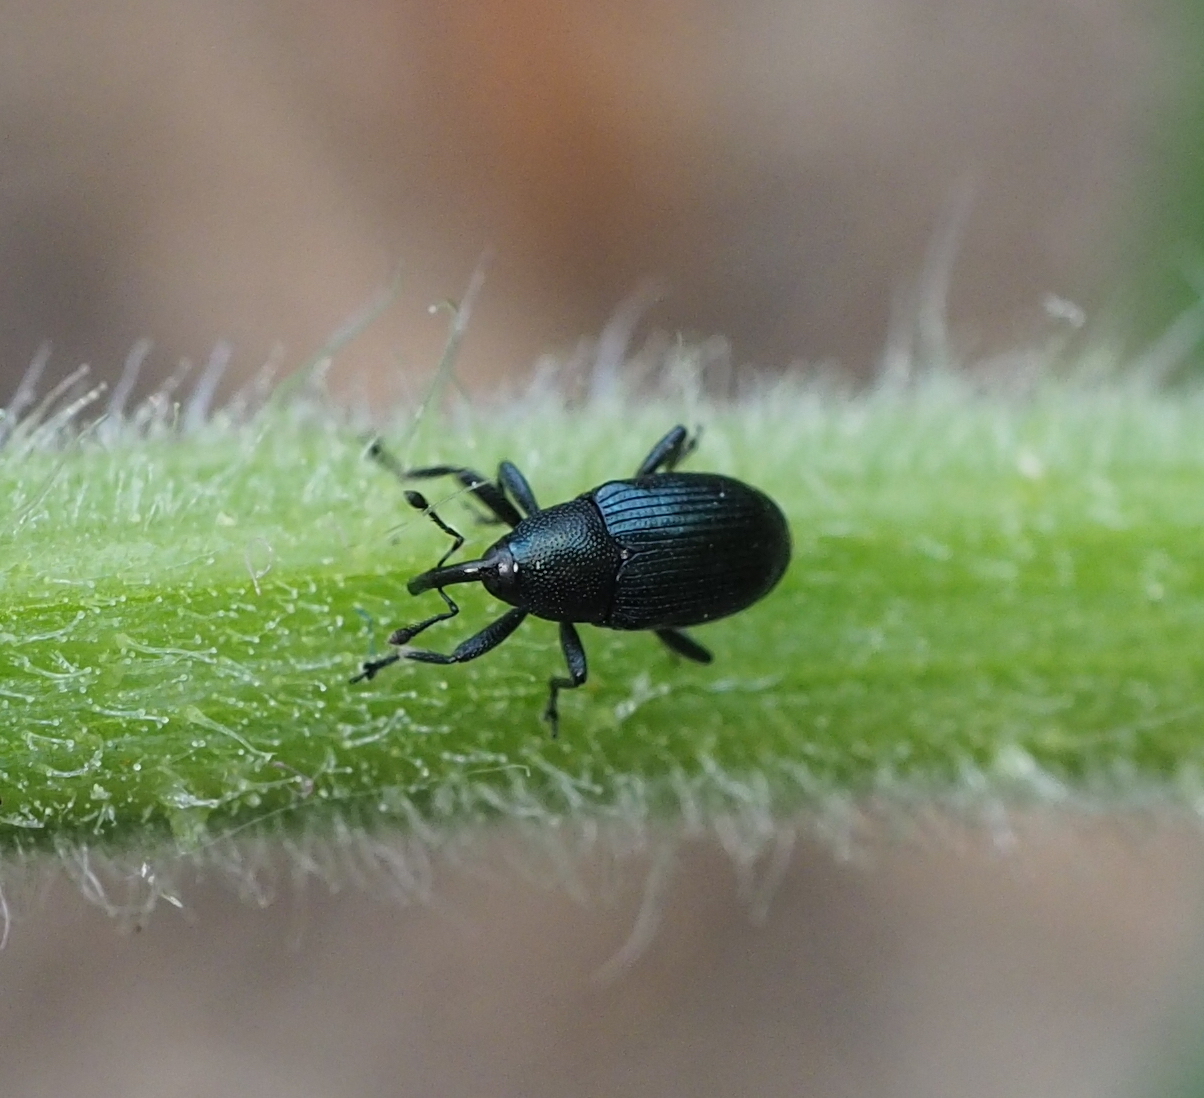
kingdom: Animalia
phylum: Arthropoda
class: Insecta
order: Coleoptera
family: Curculionidae
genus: Cucubaris
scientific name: Cucubaris villae
